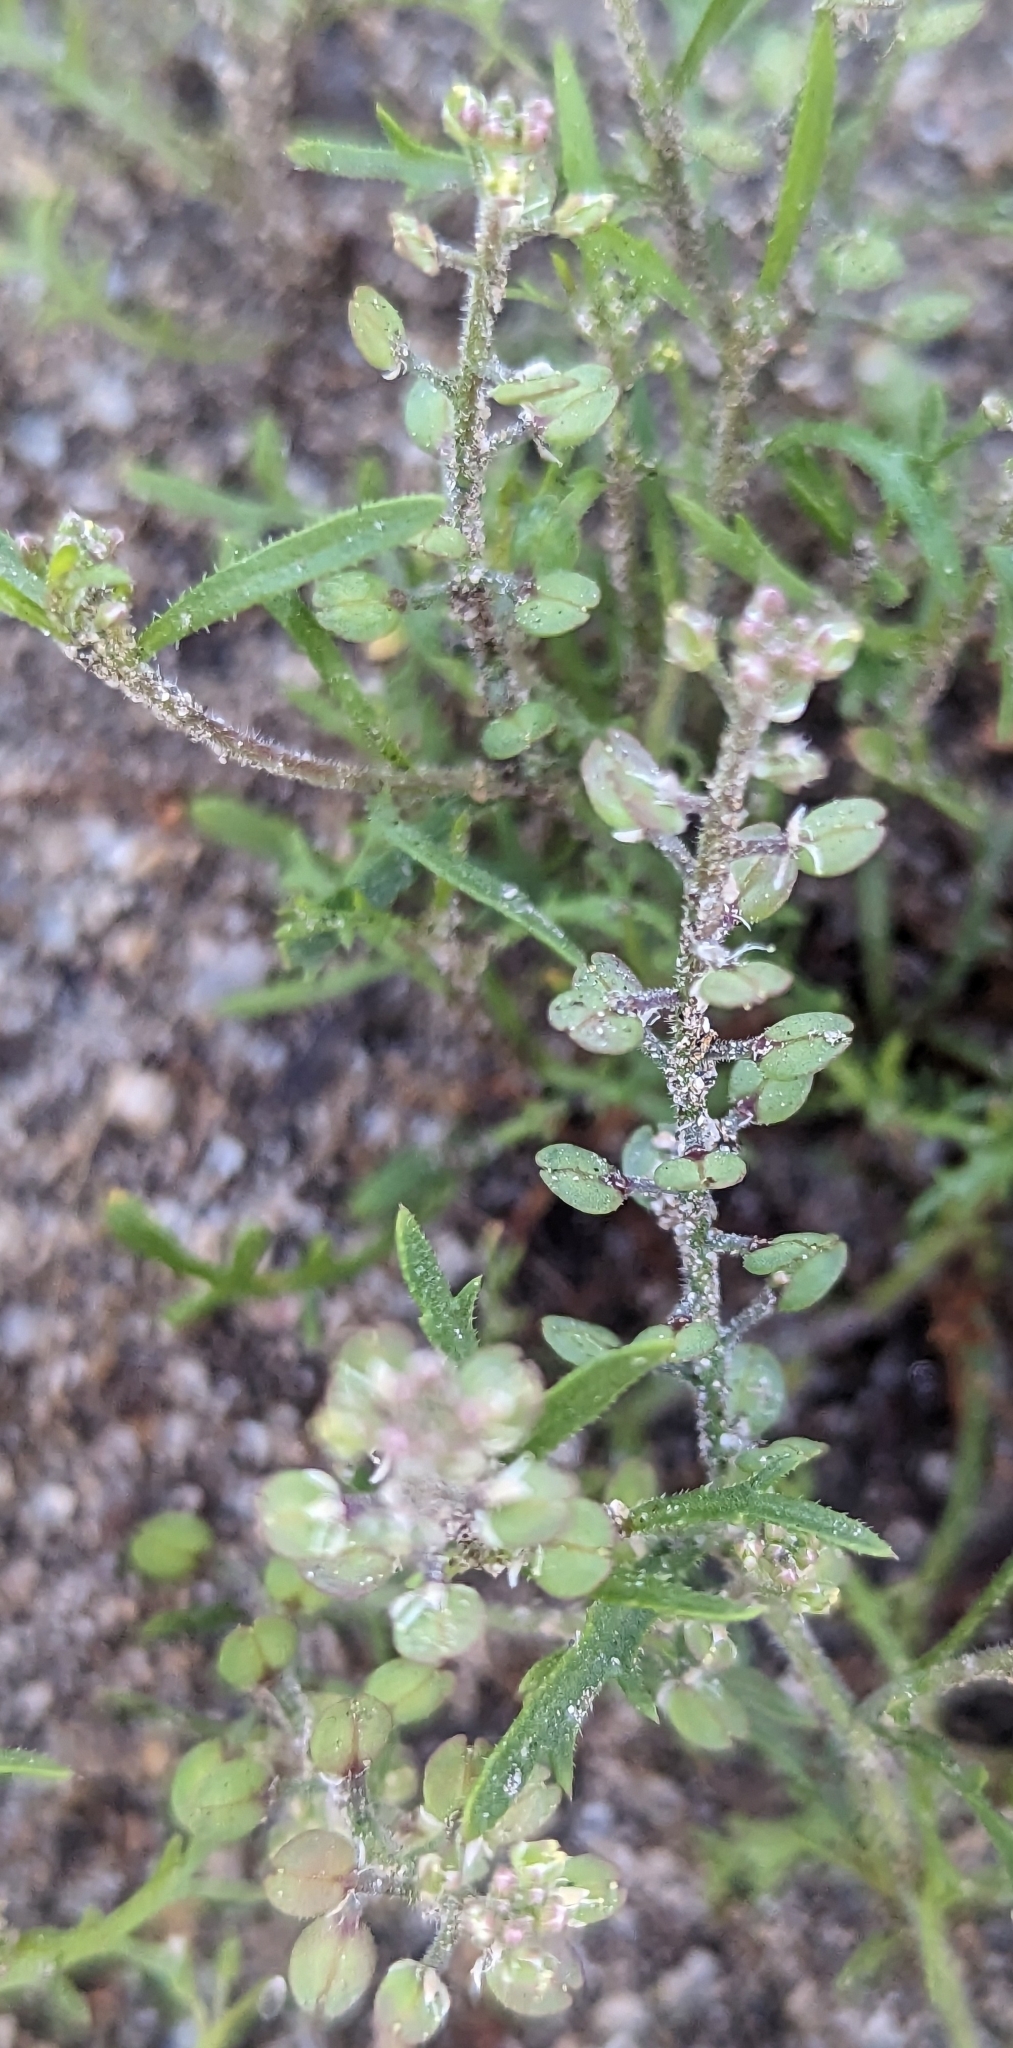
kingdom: Plantae
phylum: Tracheophyta
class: Magnoliopsida
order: Brassicales
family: Brassicaceae
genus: Lepidium
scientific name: Lepidium lasiocarpum
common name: Hairy-pod pepperwort
